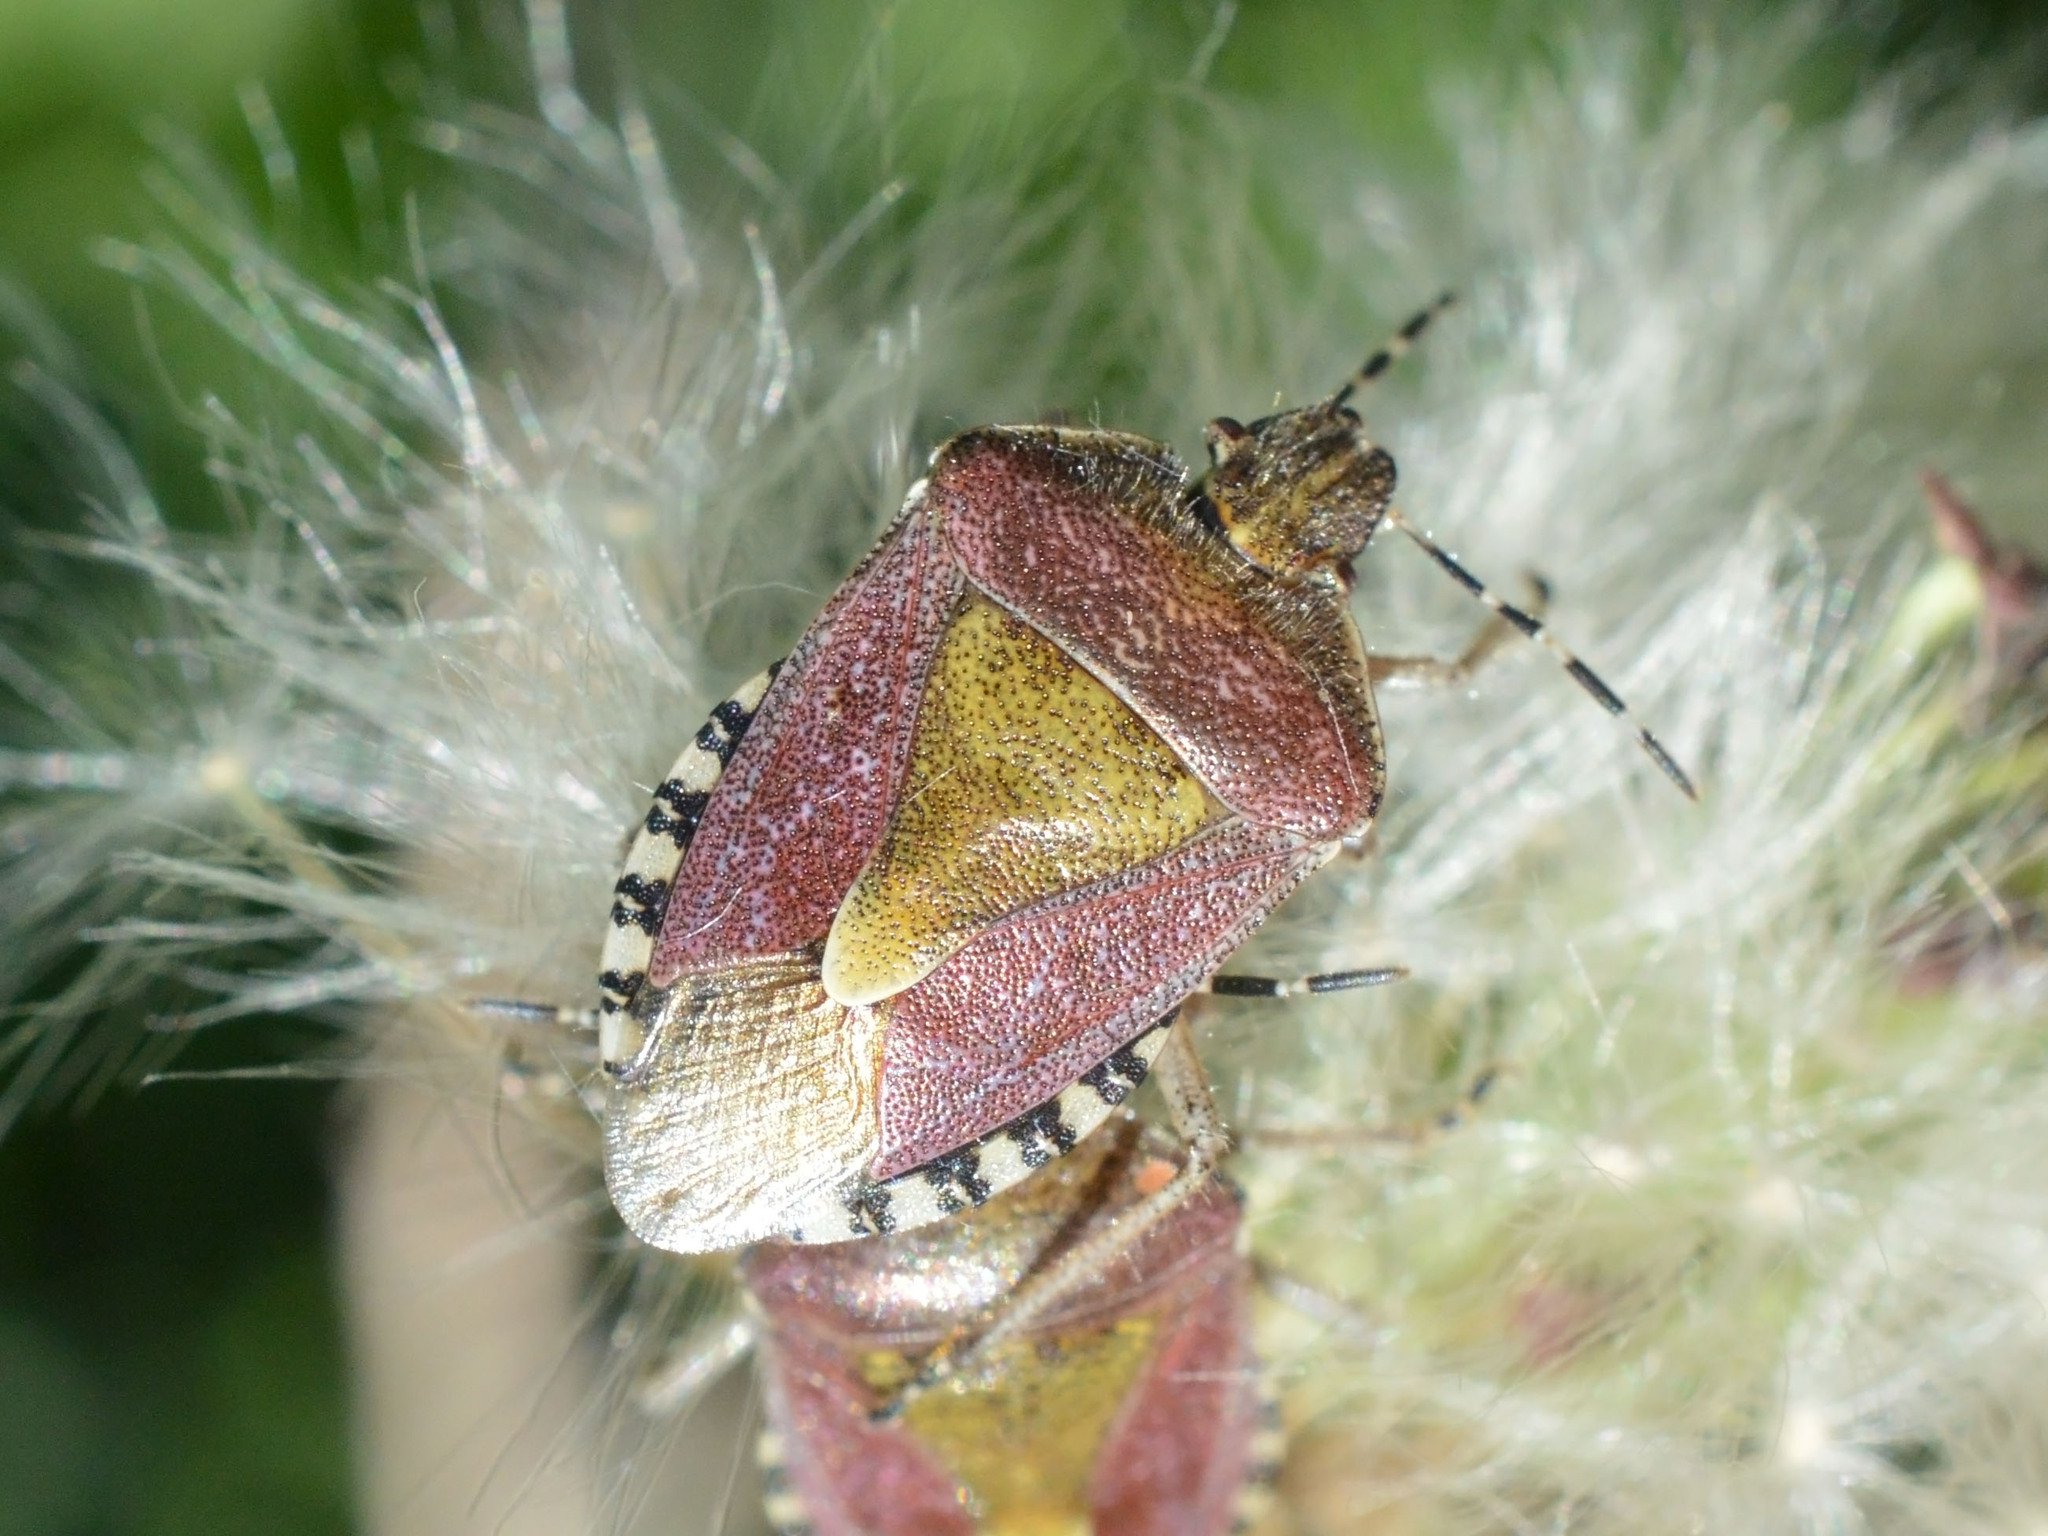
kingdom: Animalia
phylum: Arthropoda
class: Insecta
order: Hemiptera
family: Pentatomidae
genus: Dolycoris
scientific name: Dolycoris baccarum
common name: Sloe bug
